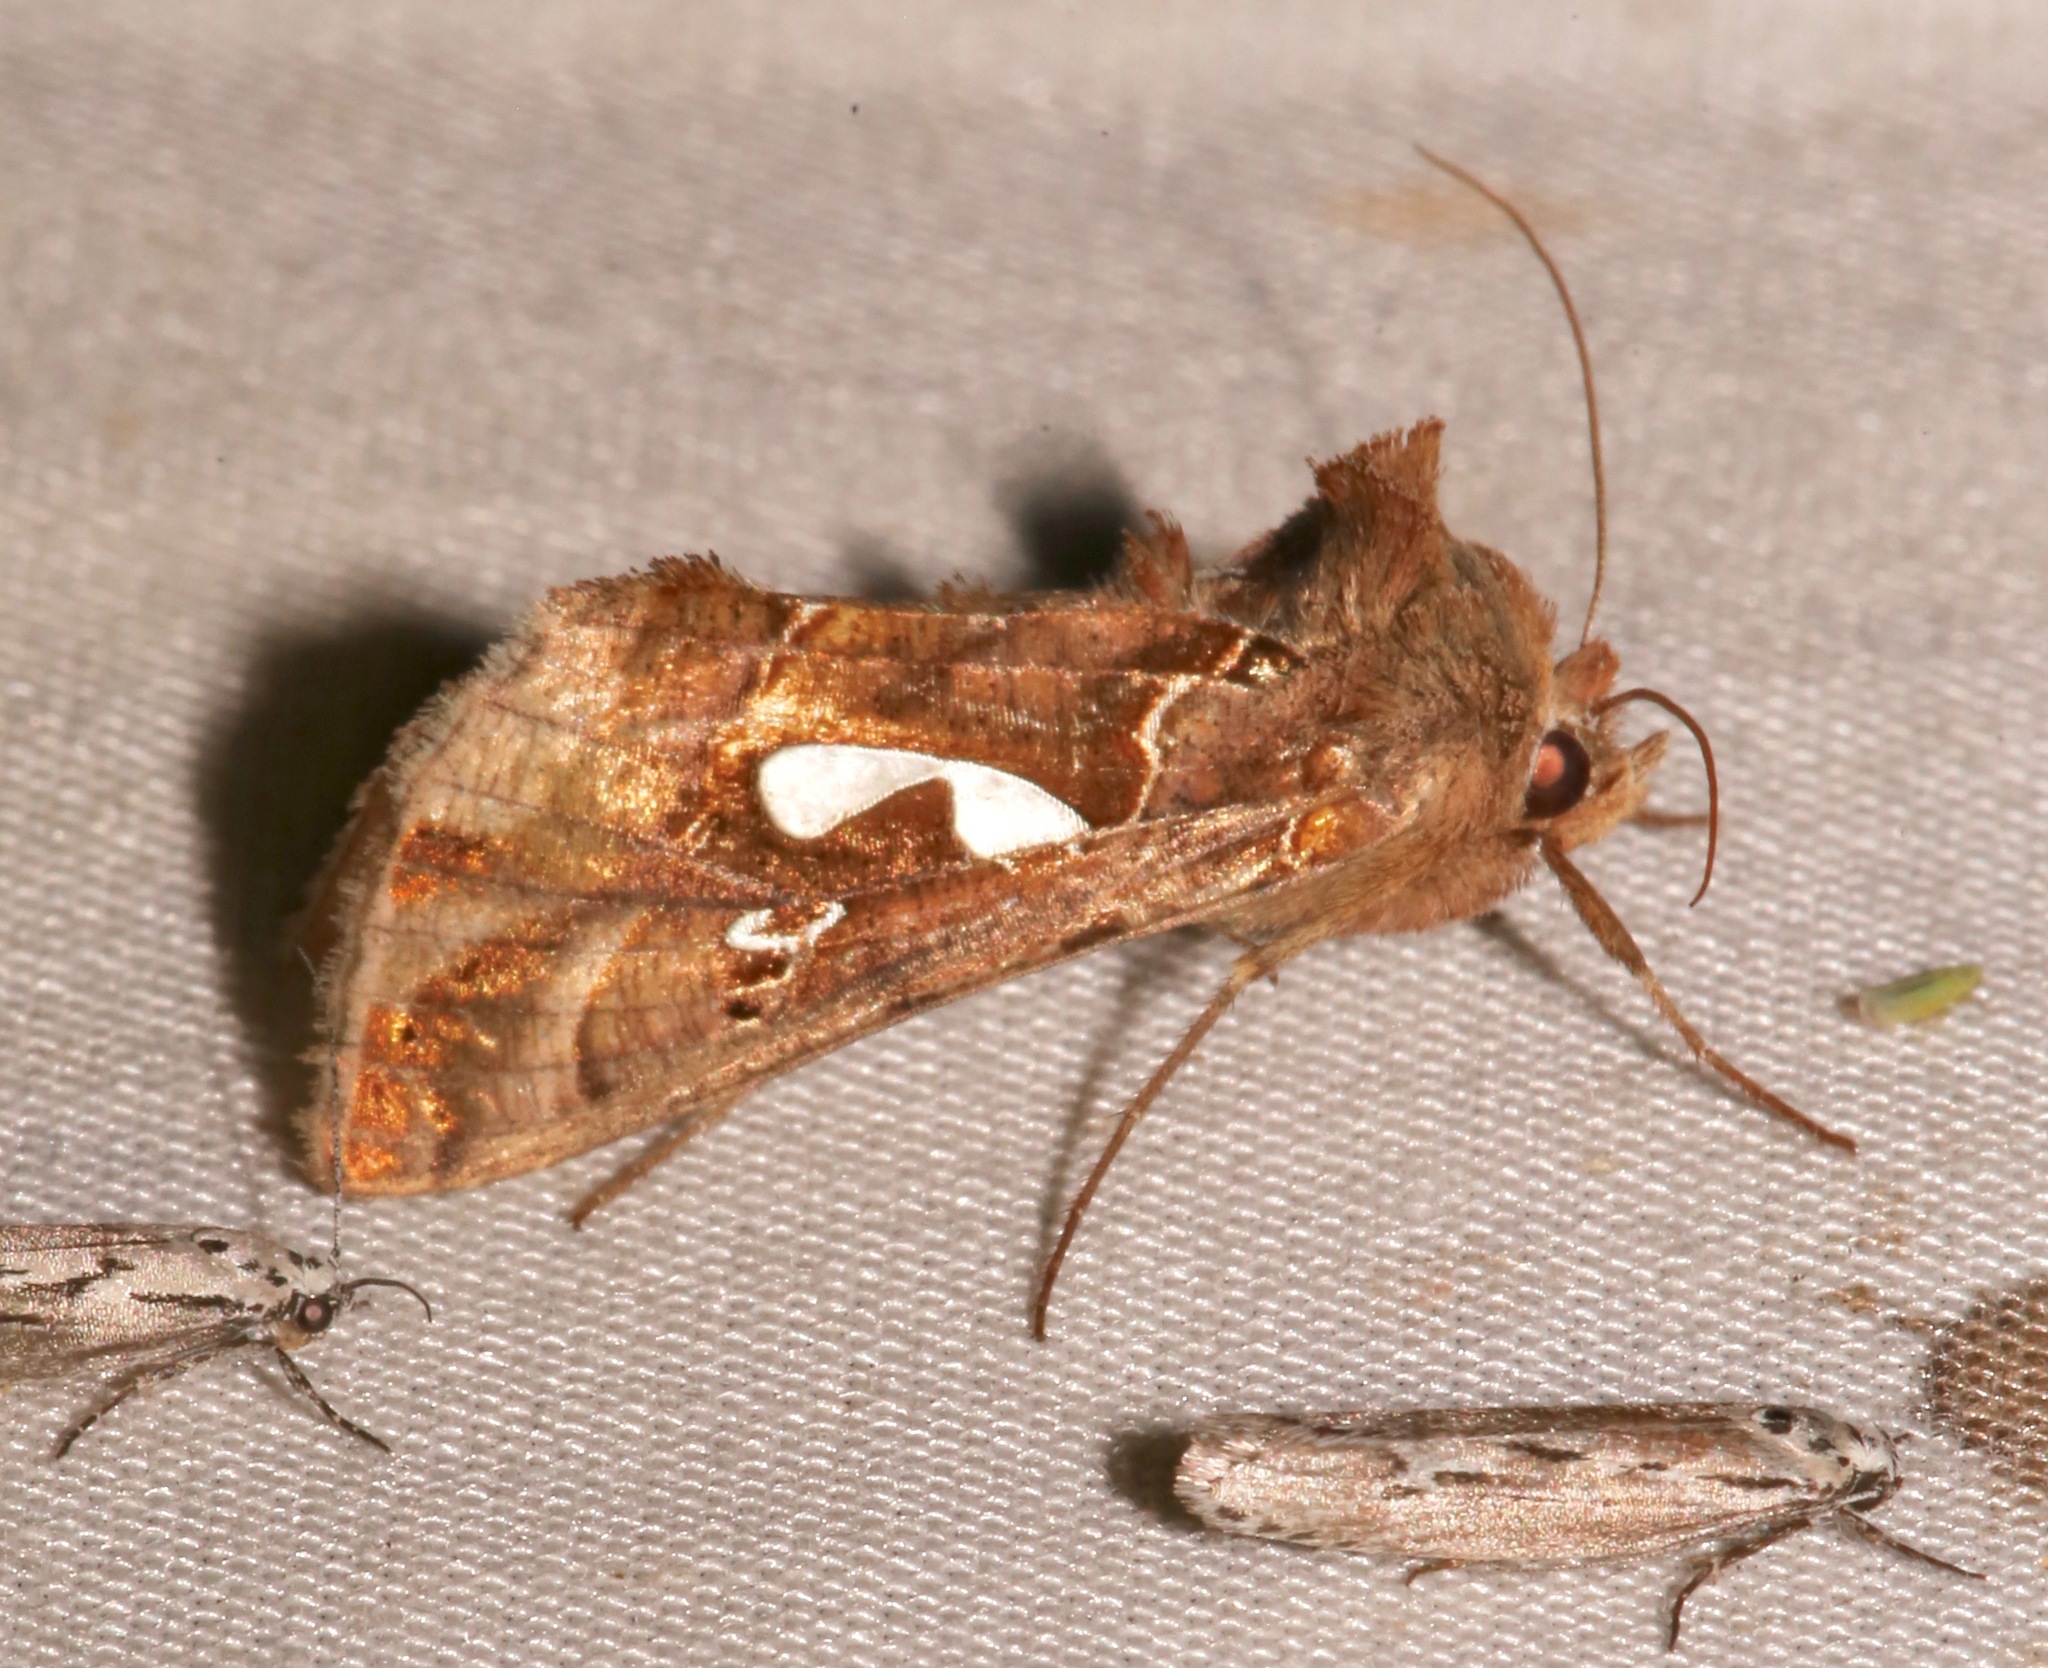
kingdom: Animalia
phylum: Arthropoda
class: Insecta
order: Lepidoptera
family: Noctuidae
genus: Megalographa
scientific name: Megalographa biloba
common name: Cutworm
